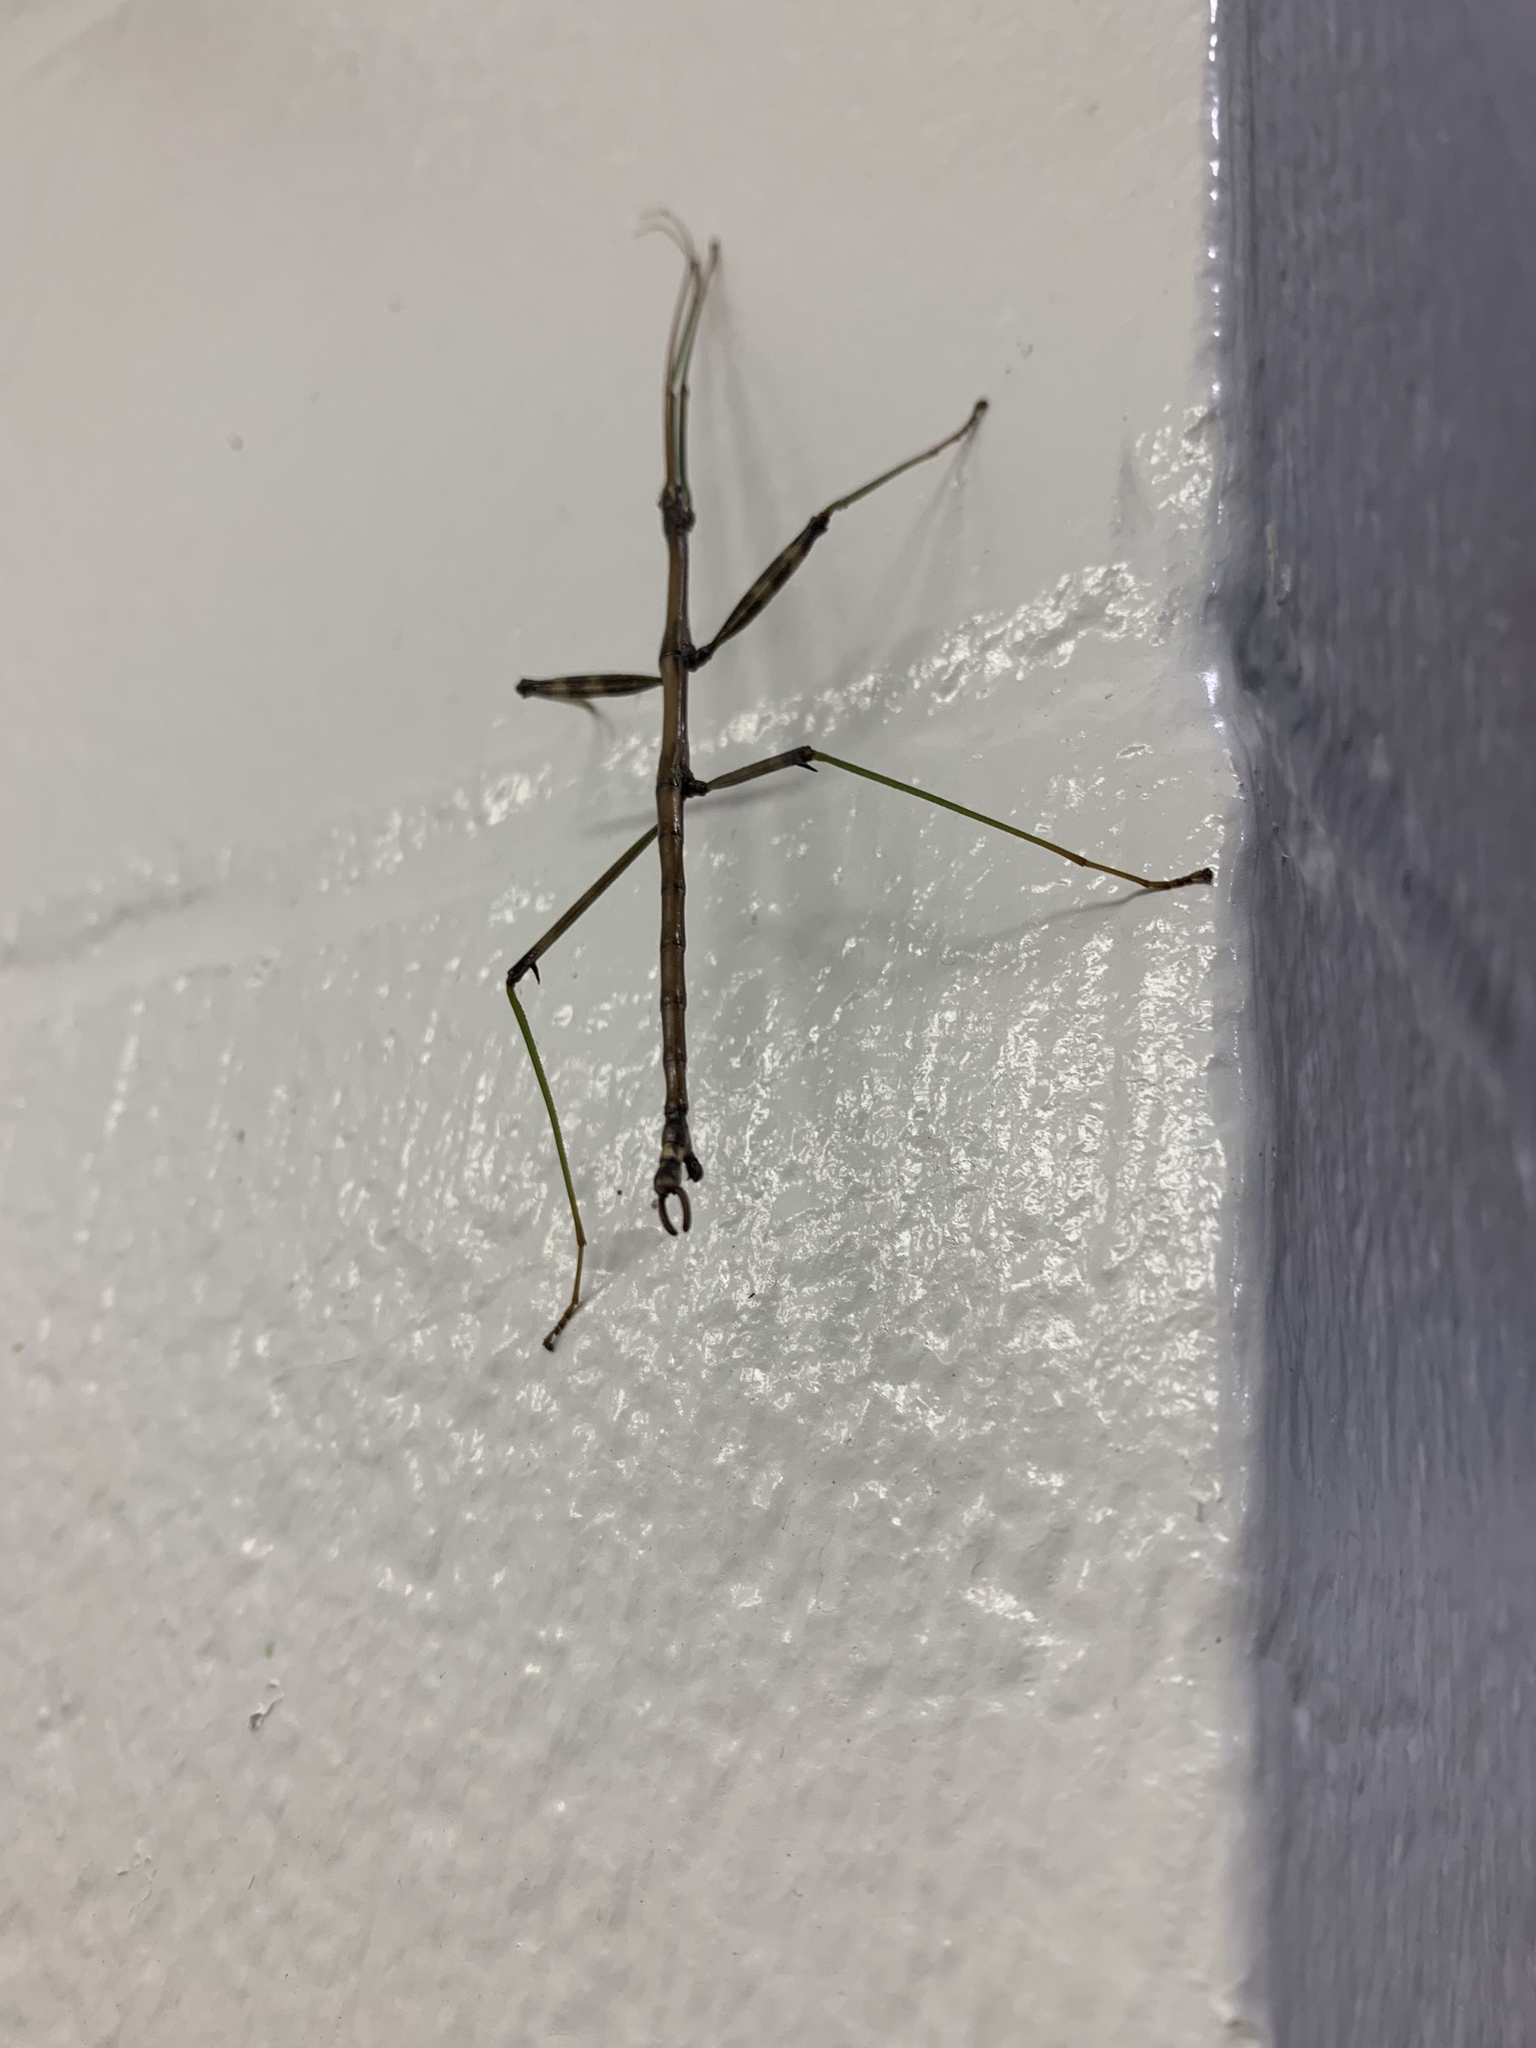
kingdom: Animalia
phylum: Arthropoda
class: Insecta
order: Phasmida
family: Diapheromeridae
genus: Diapheromera
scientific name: Diapheromera femorata
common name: Common american walkingstick
